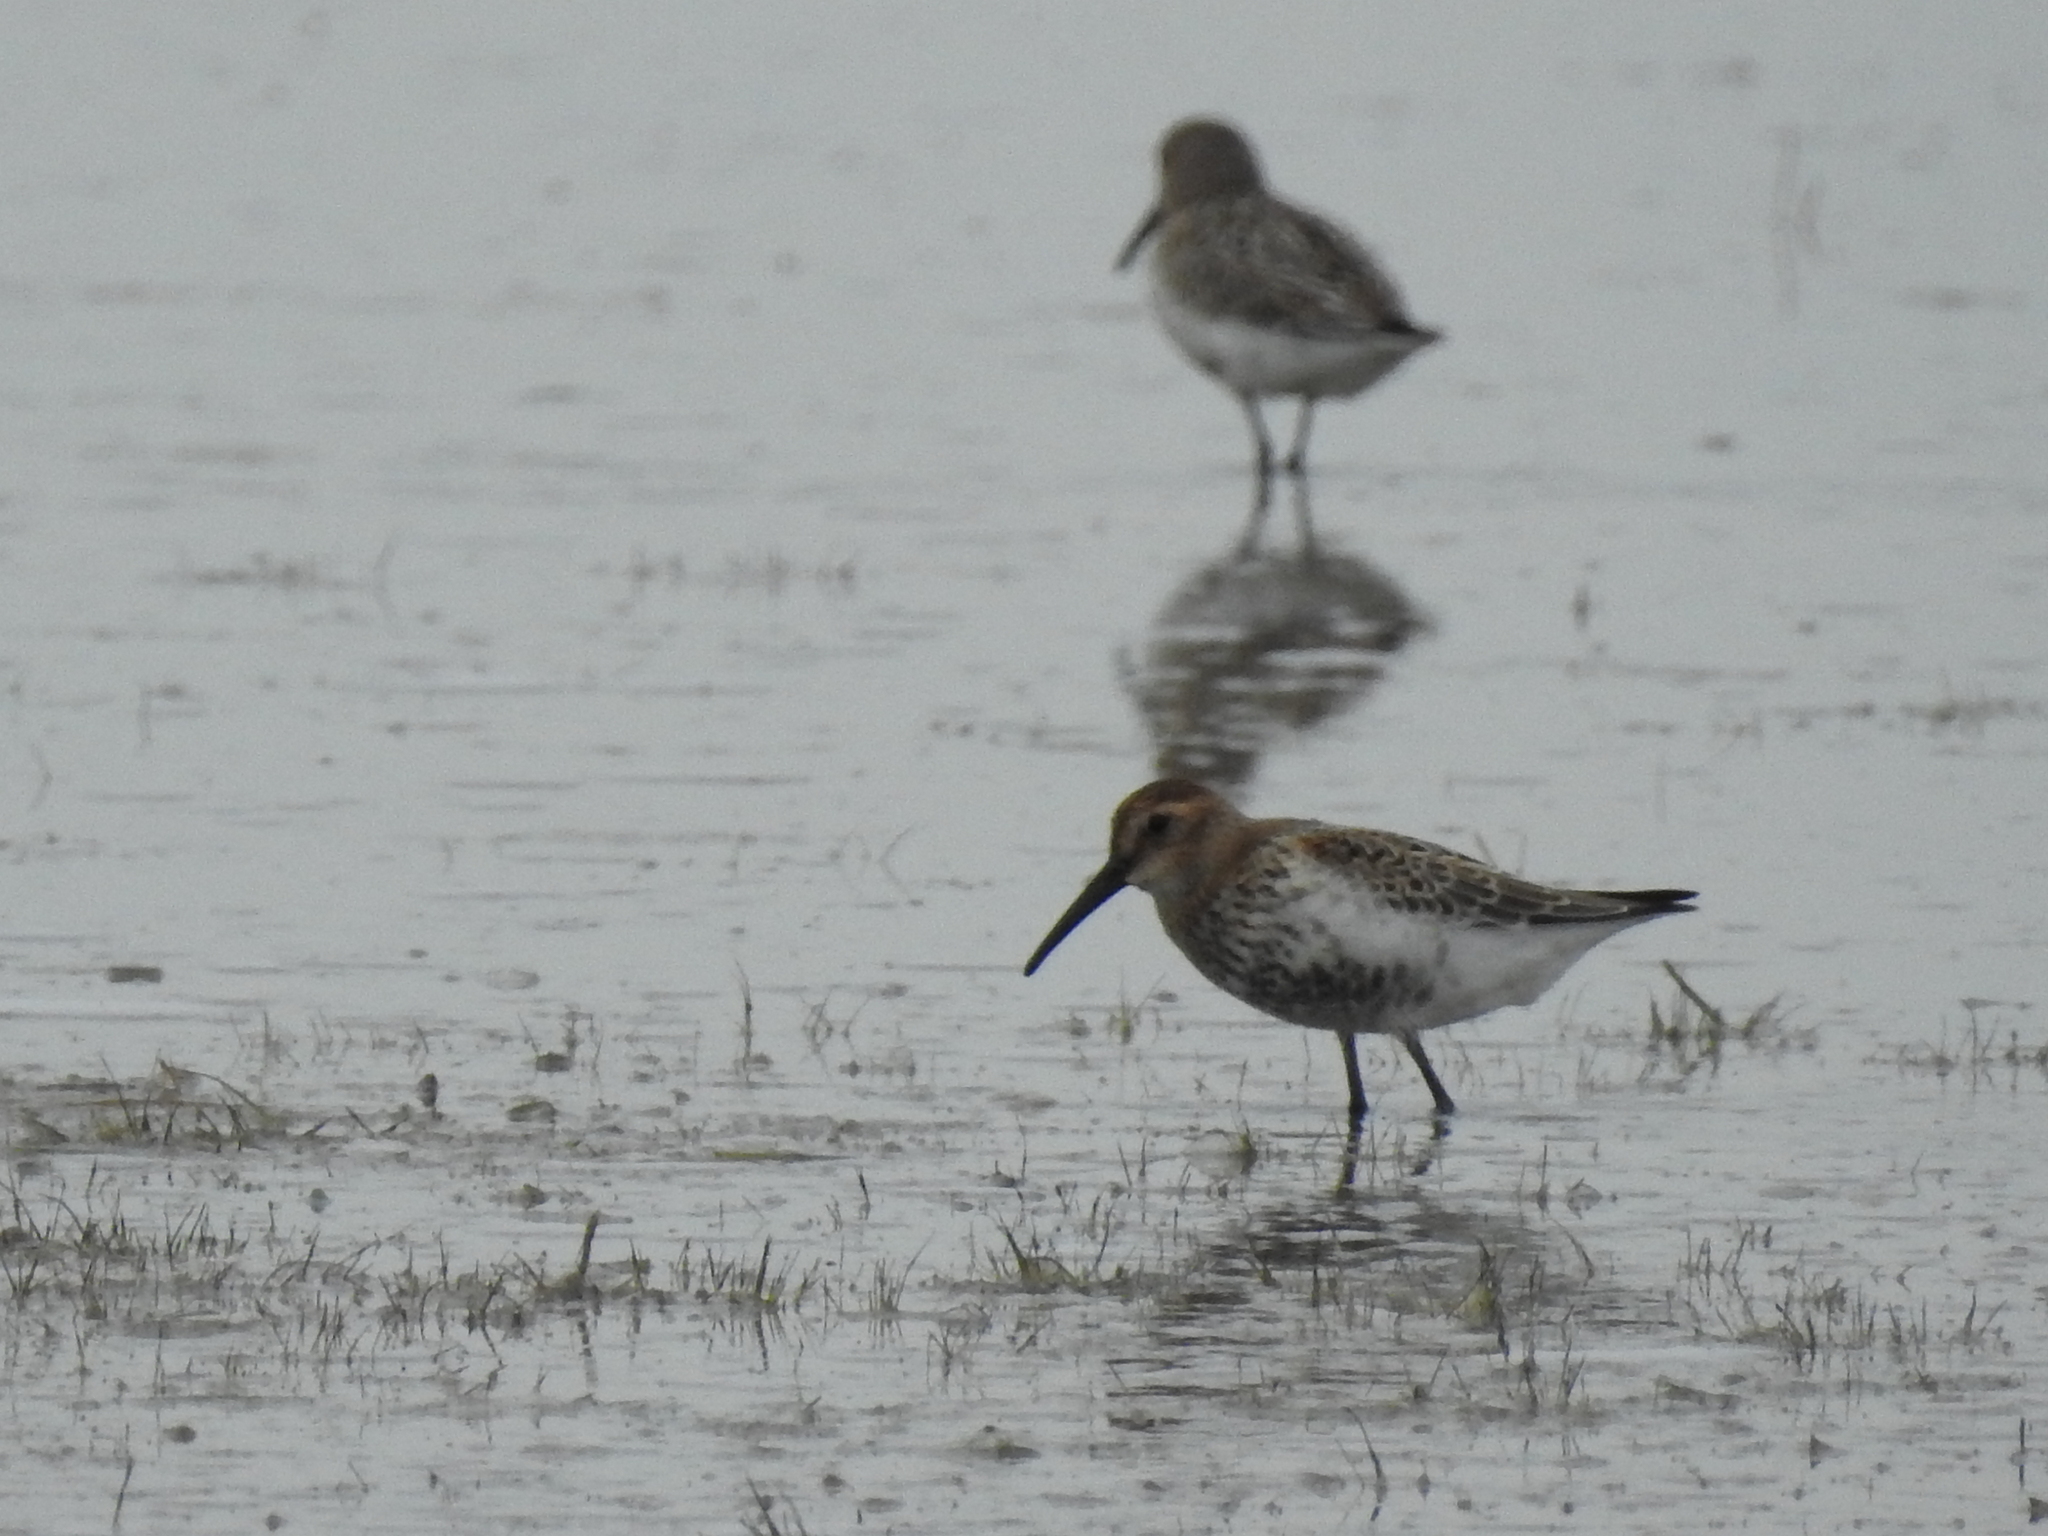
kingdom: Animalia
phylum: Chordata
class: Aves
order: Charadriiformes
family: Scolopacidae
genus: Calidris
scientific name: Calidris alpina
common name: Dunlin
